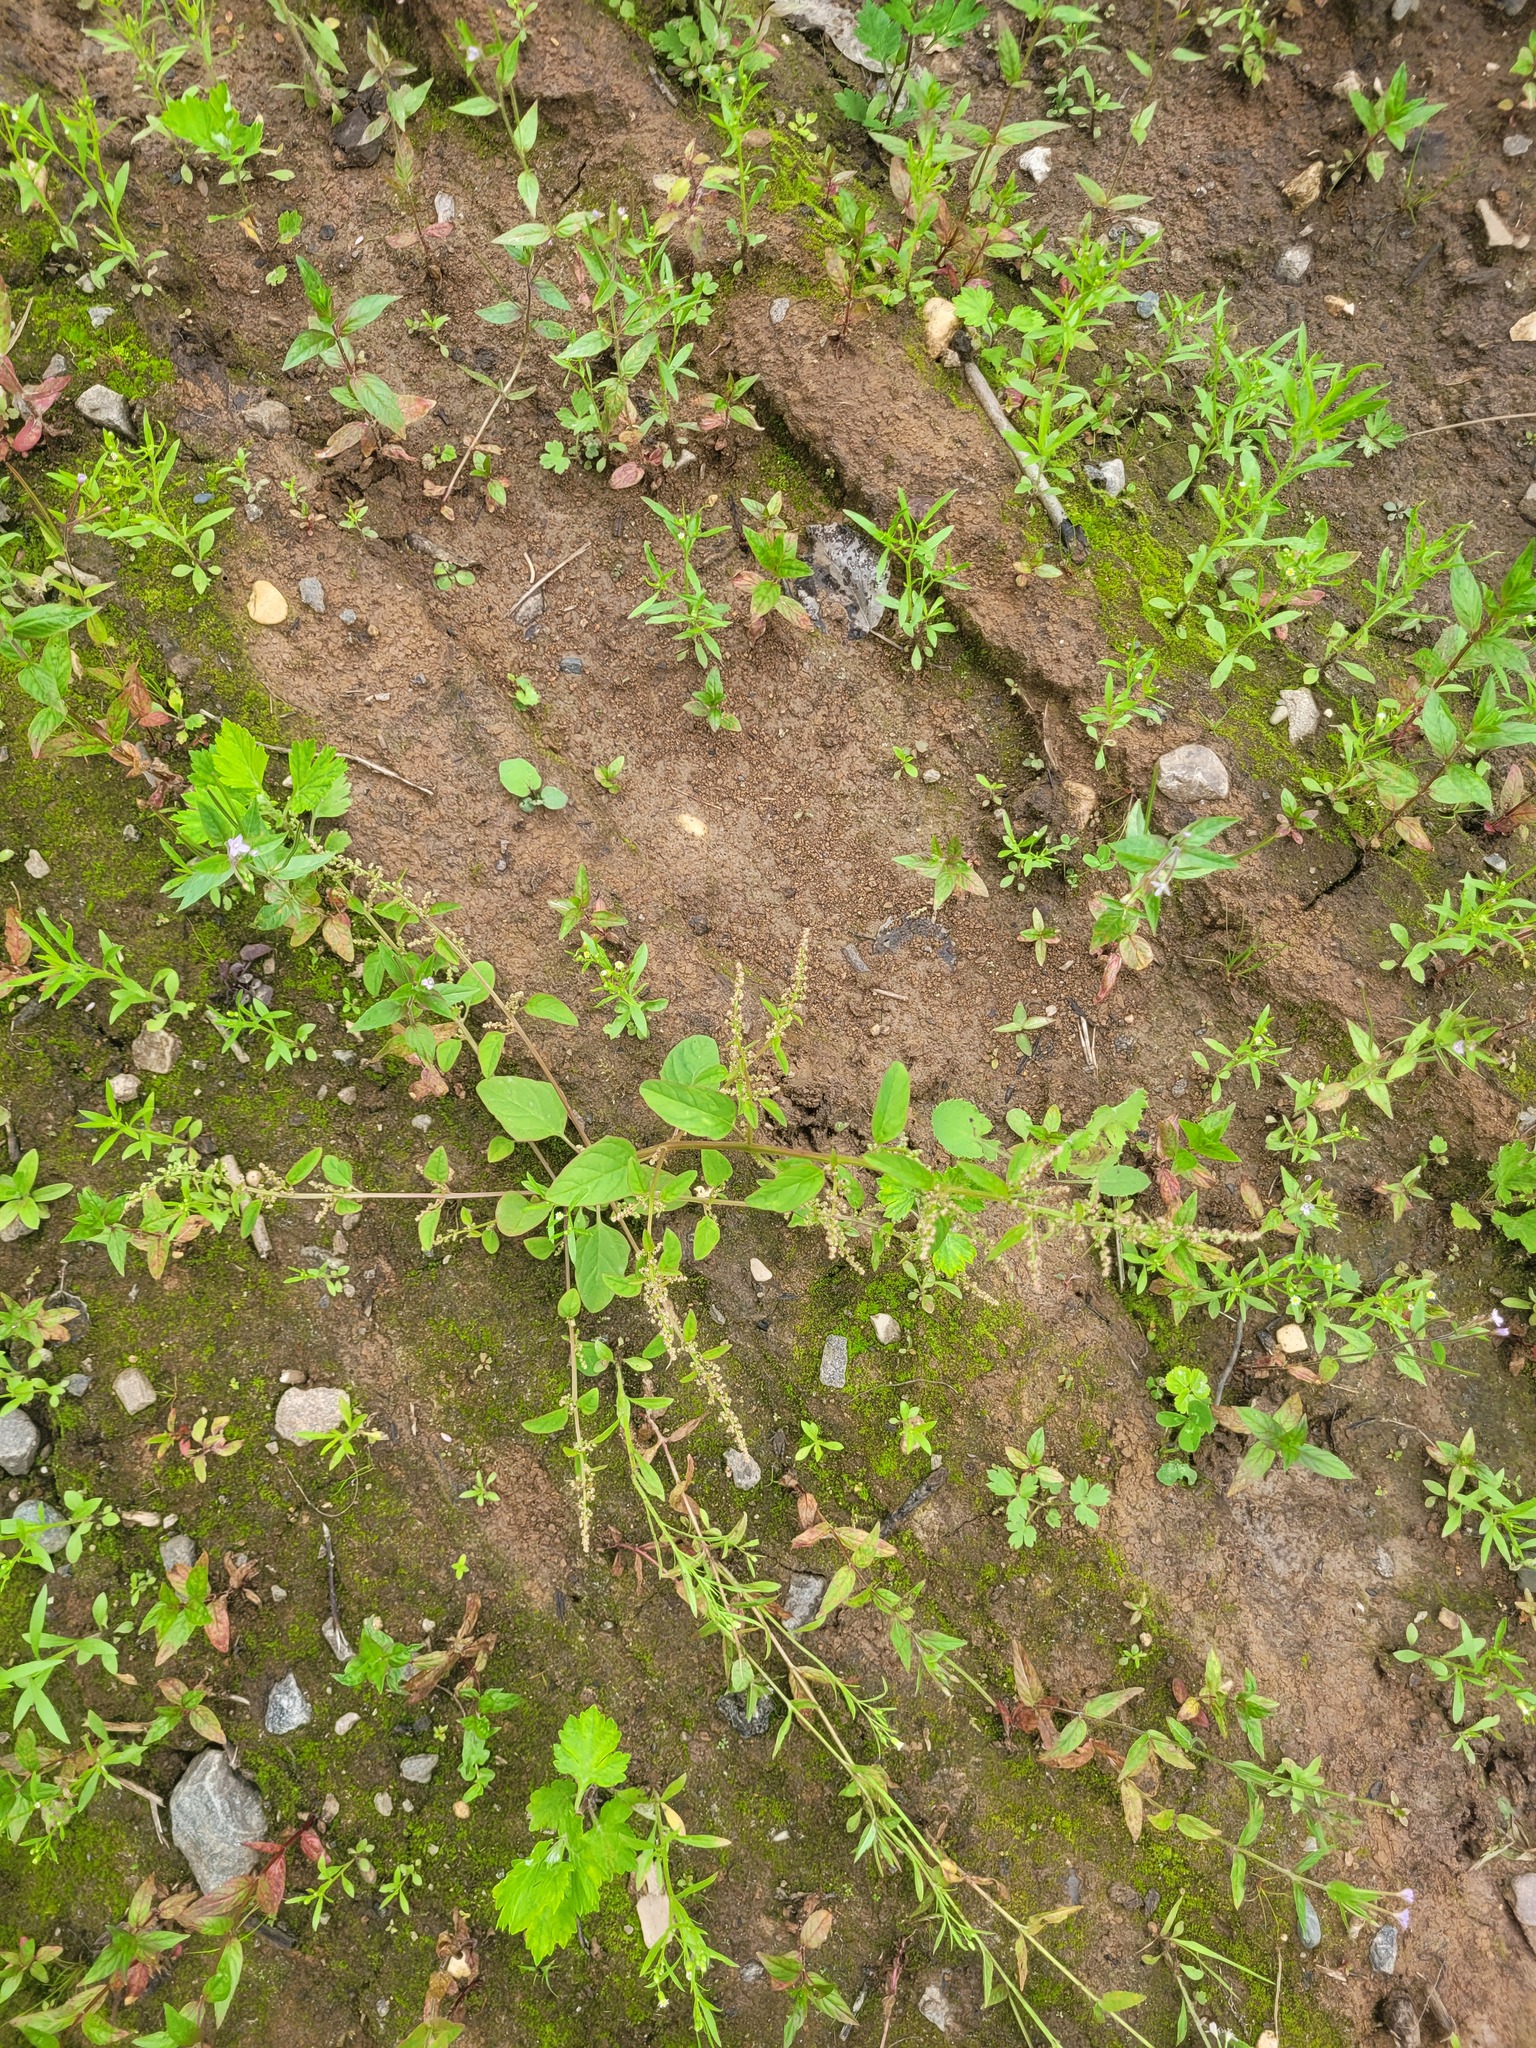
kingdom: Plantae
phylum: Tracheophyta
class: Magnoliopsida
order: Caryophyllales
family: Amaranthaceae
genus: Lipandra
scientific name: Lipandra polysperma
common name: Many-seed goosefoot
